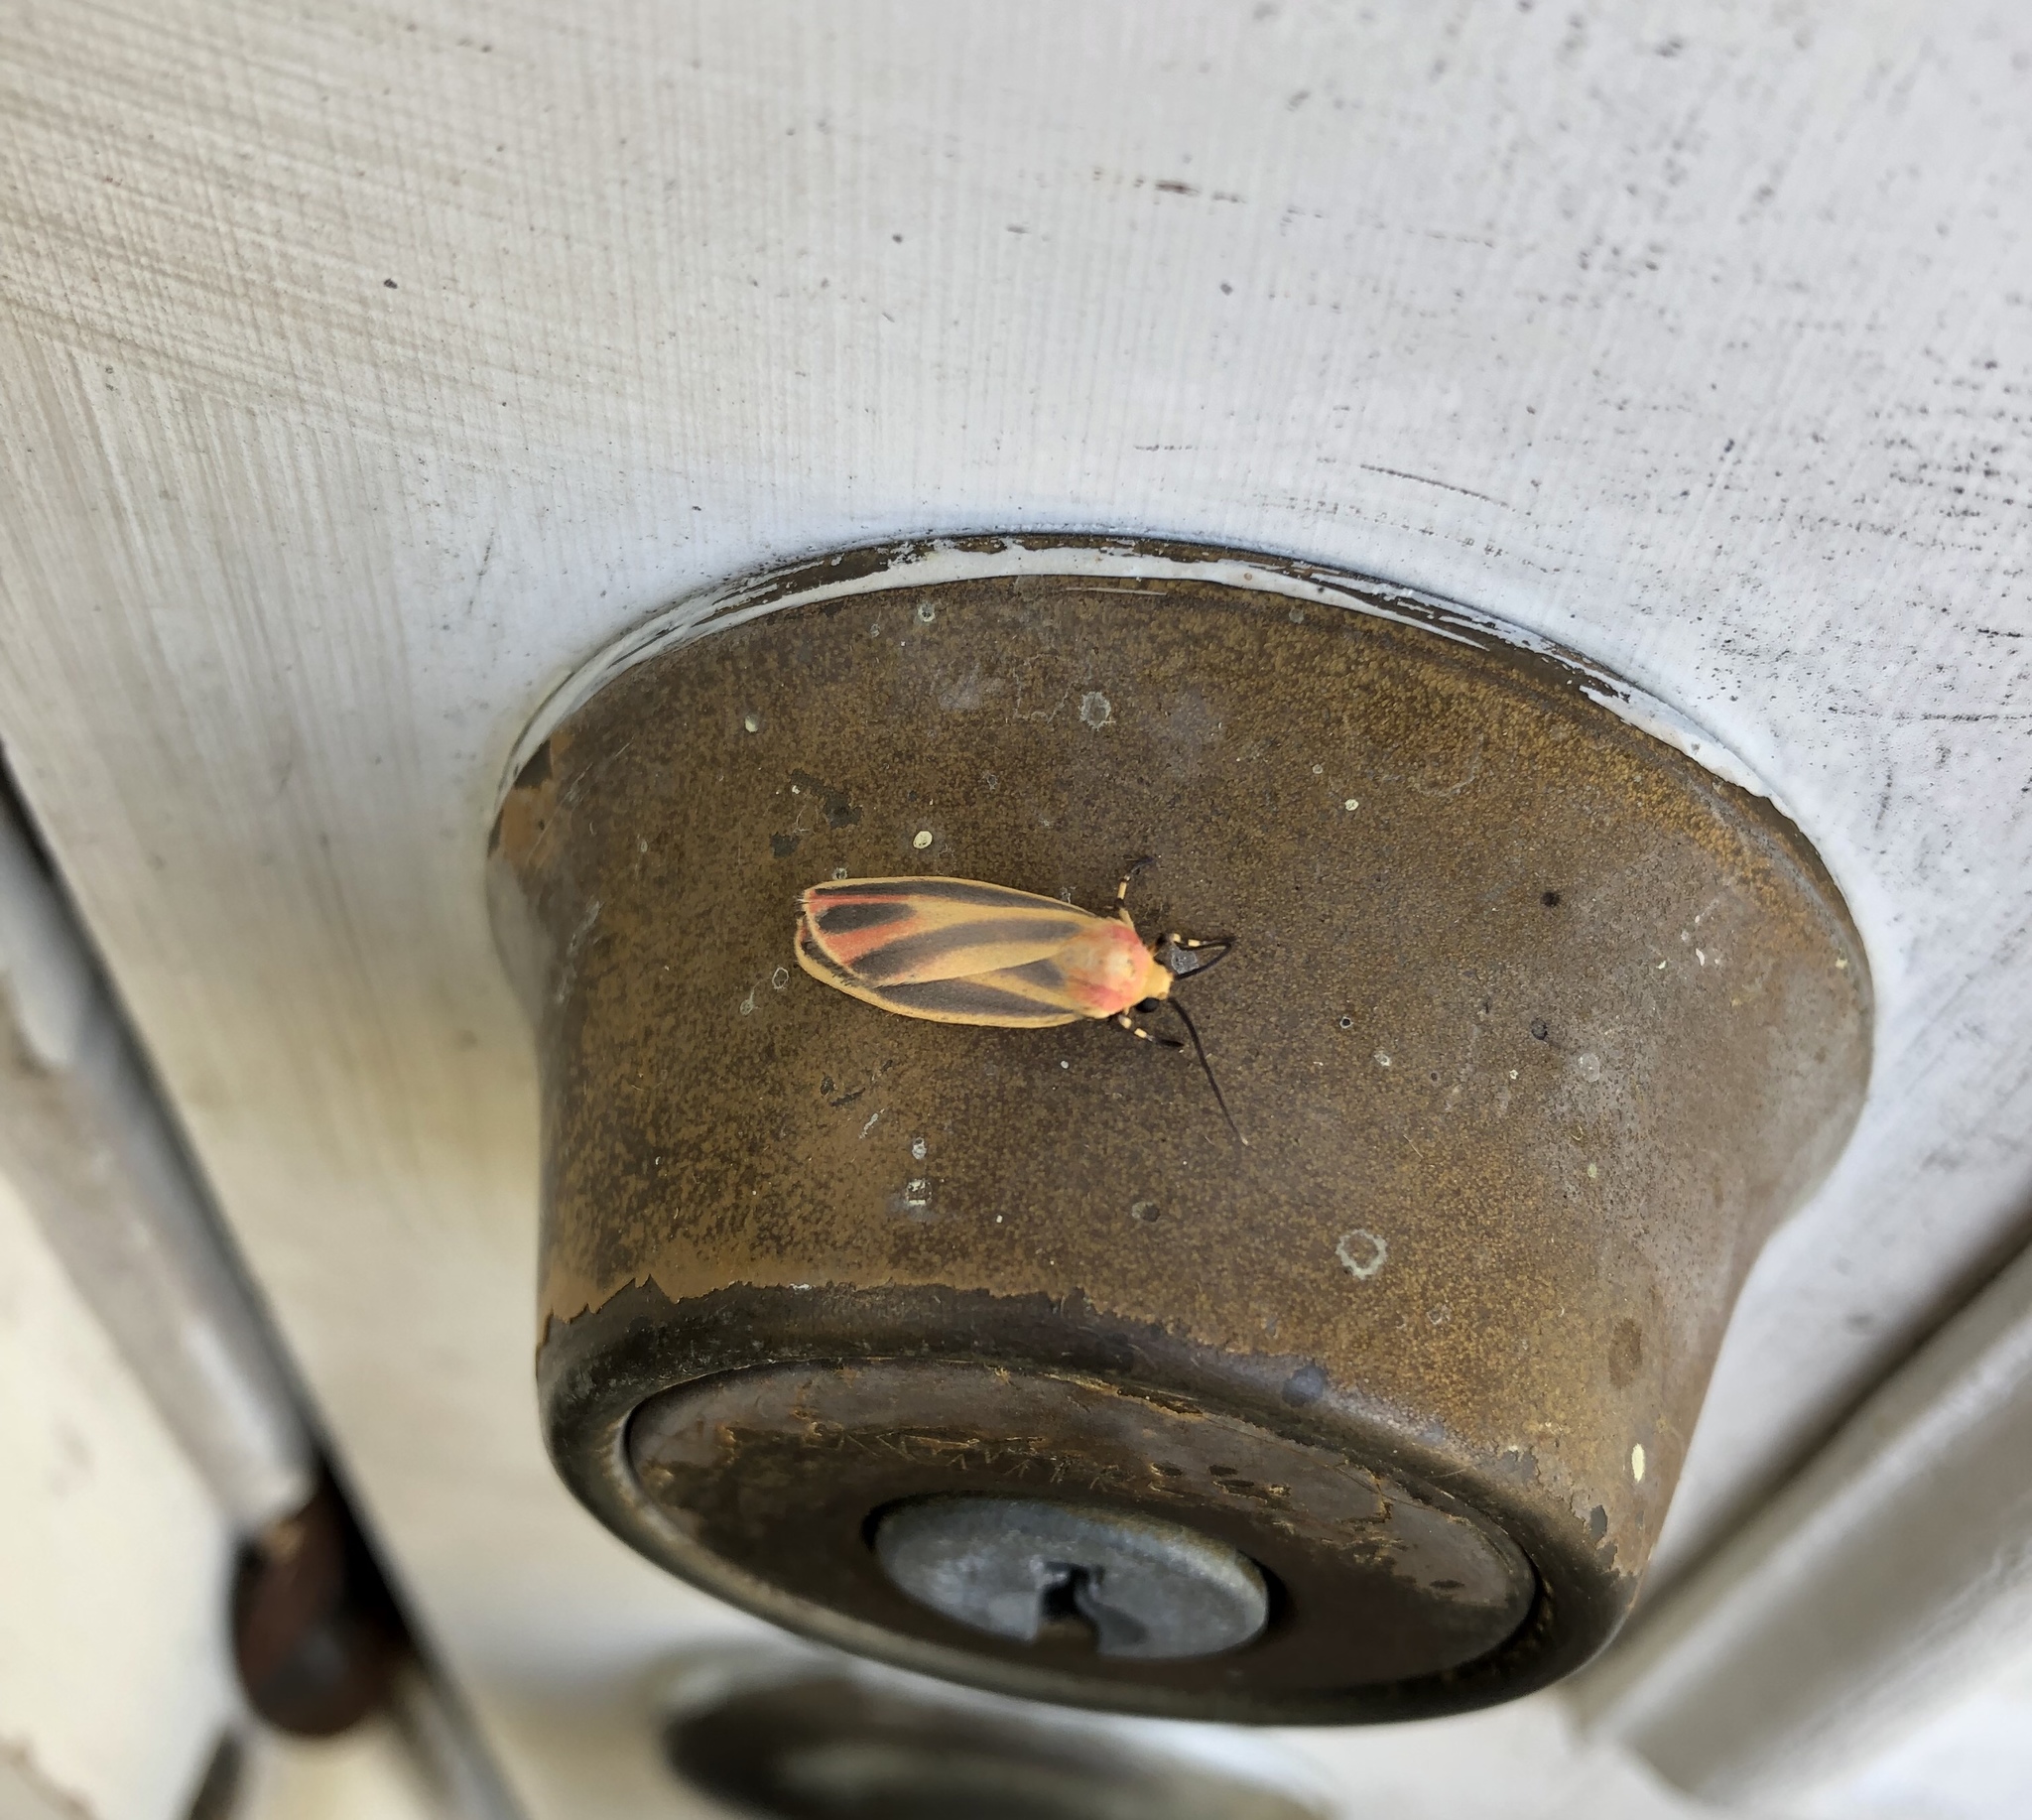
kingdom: Animalia
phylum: Arthropoda
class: Insecta
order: Lepidoptera
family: Erebidae
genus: Hypoprepia
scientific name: Hypoprepia fucosa
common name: Painted lichen moth
